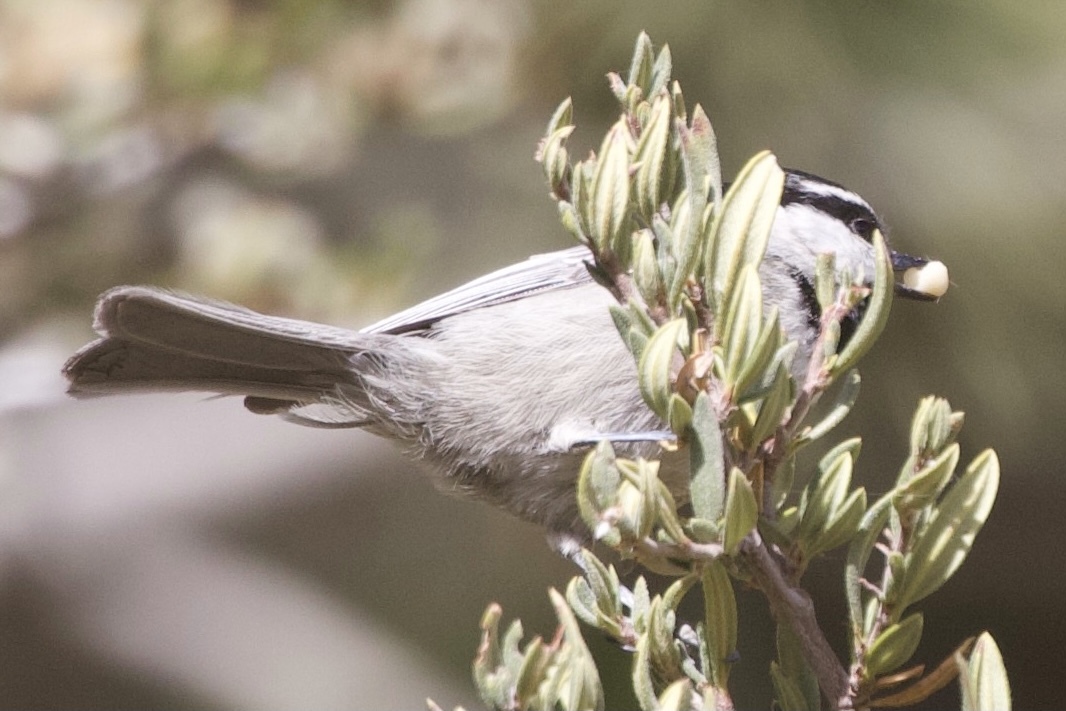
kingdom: Animalia
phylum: Chordata
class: Aves
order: Passeriformes
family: Paridae
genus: Poecile
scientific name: Poecile gambeli
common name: Mountain chickadee
